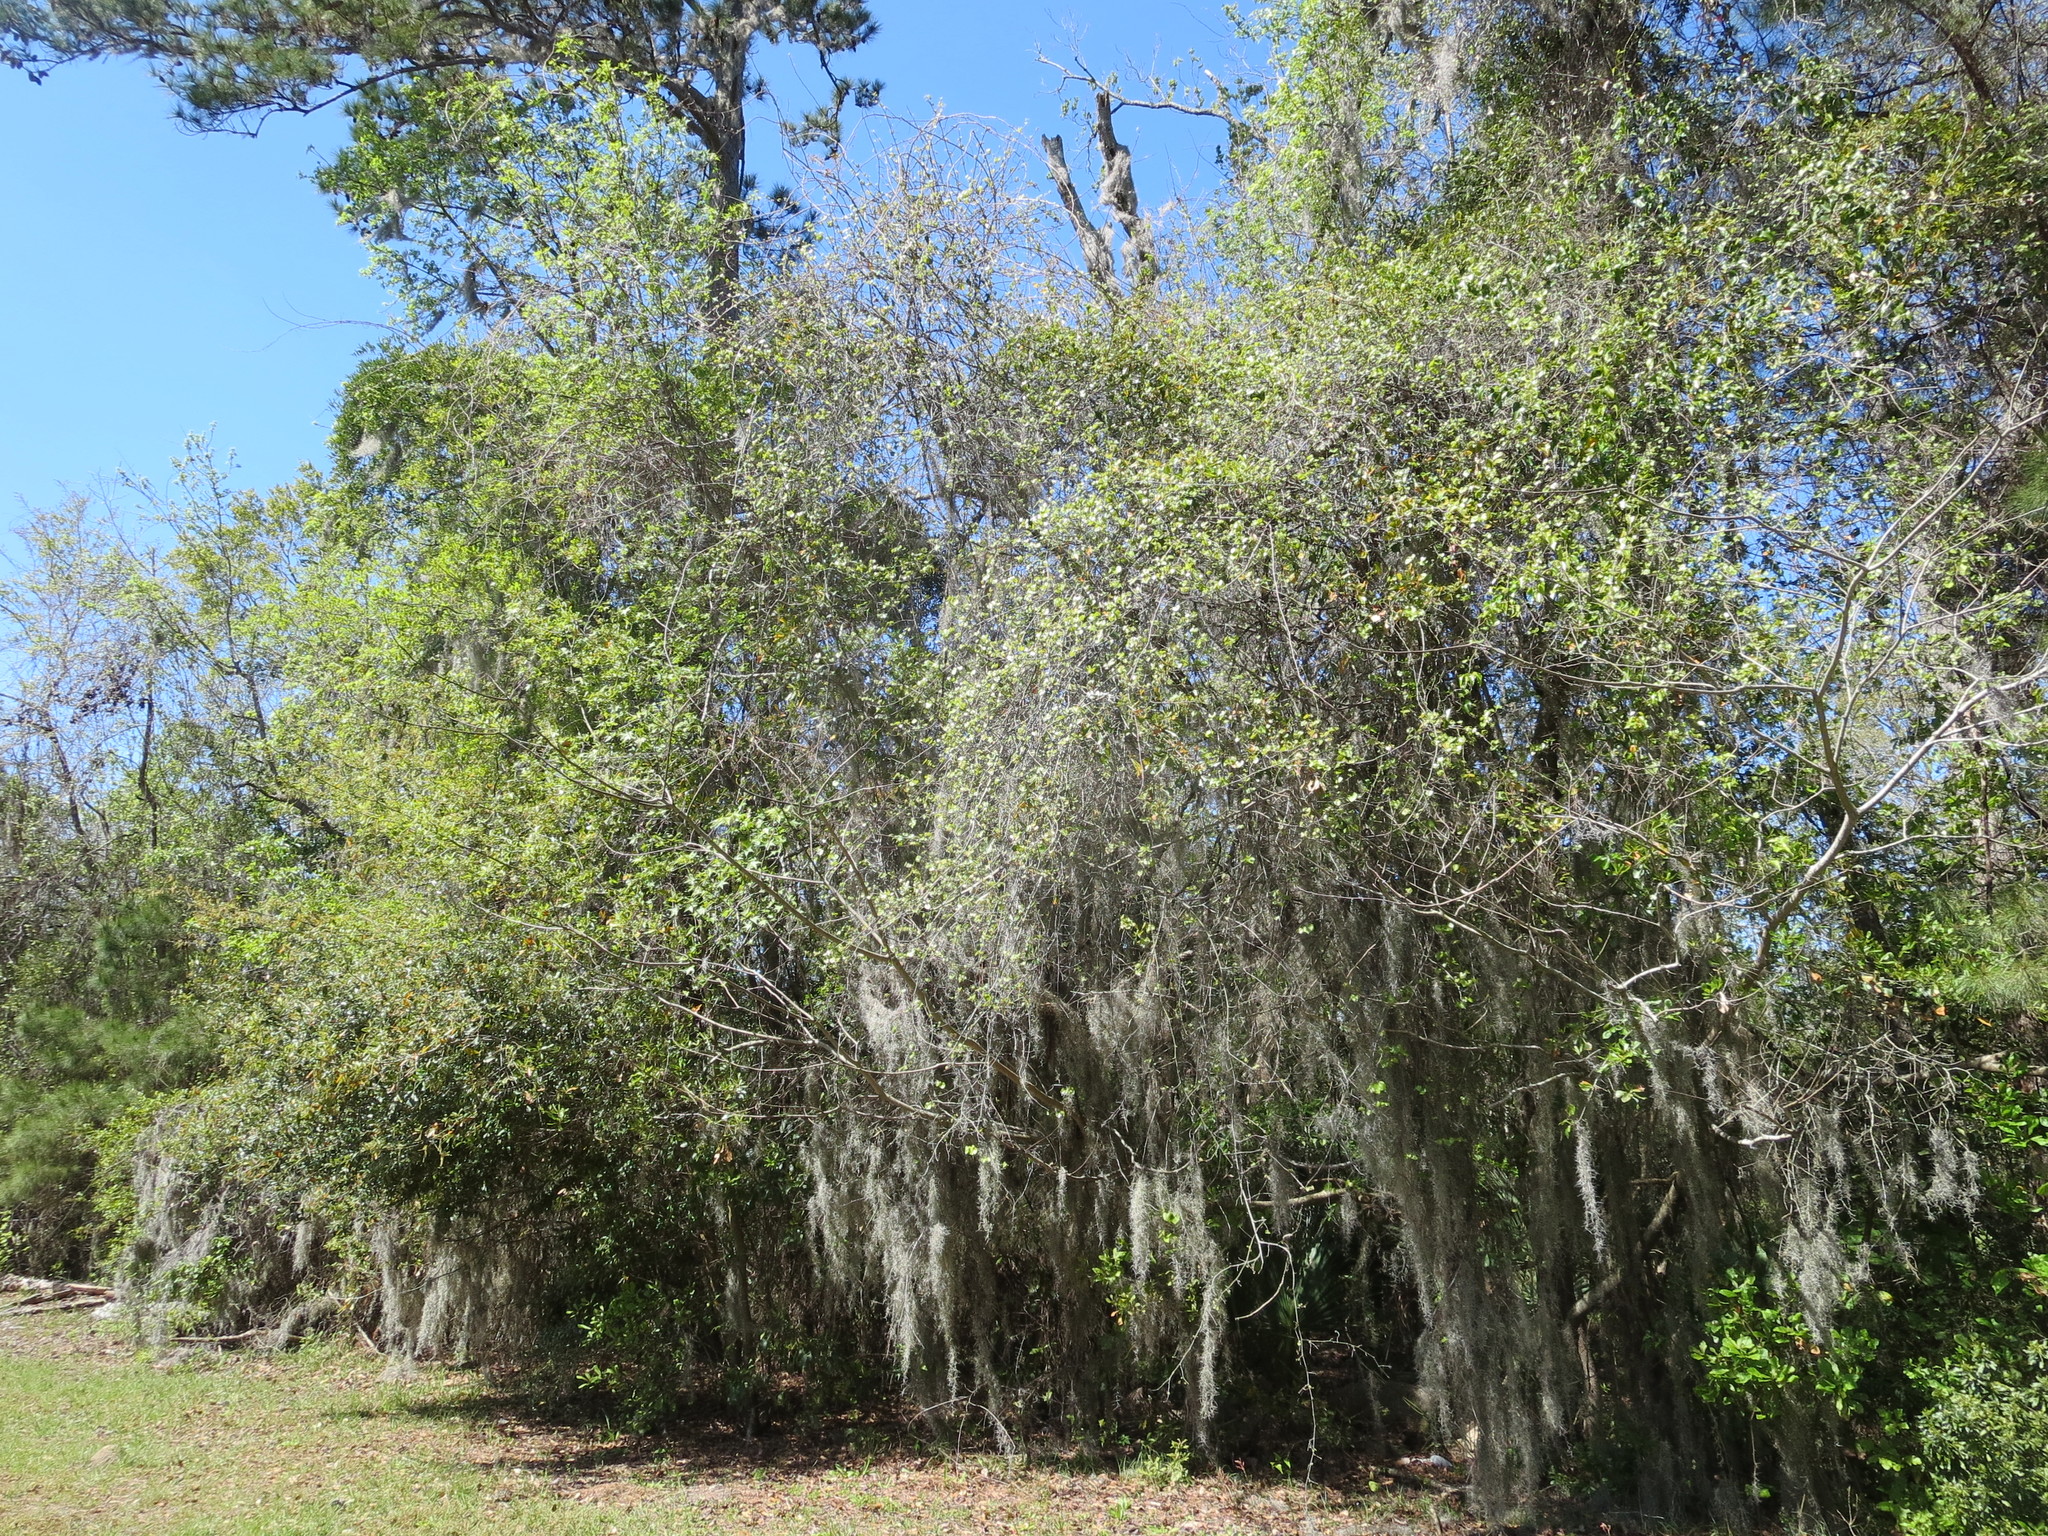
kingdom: Plantae
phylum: Tracheophyta
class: Magnoliopsida
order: Vitales
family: Vitaceae
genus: Vitis
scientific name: Vitis rotundifolia
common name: Muscadine grape
